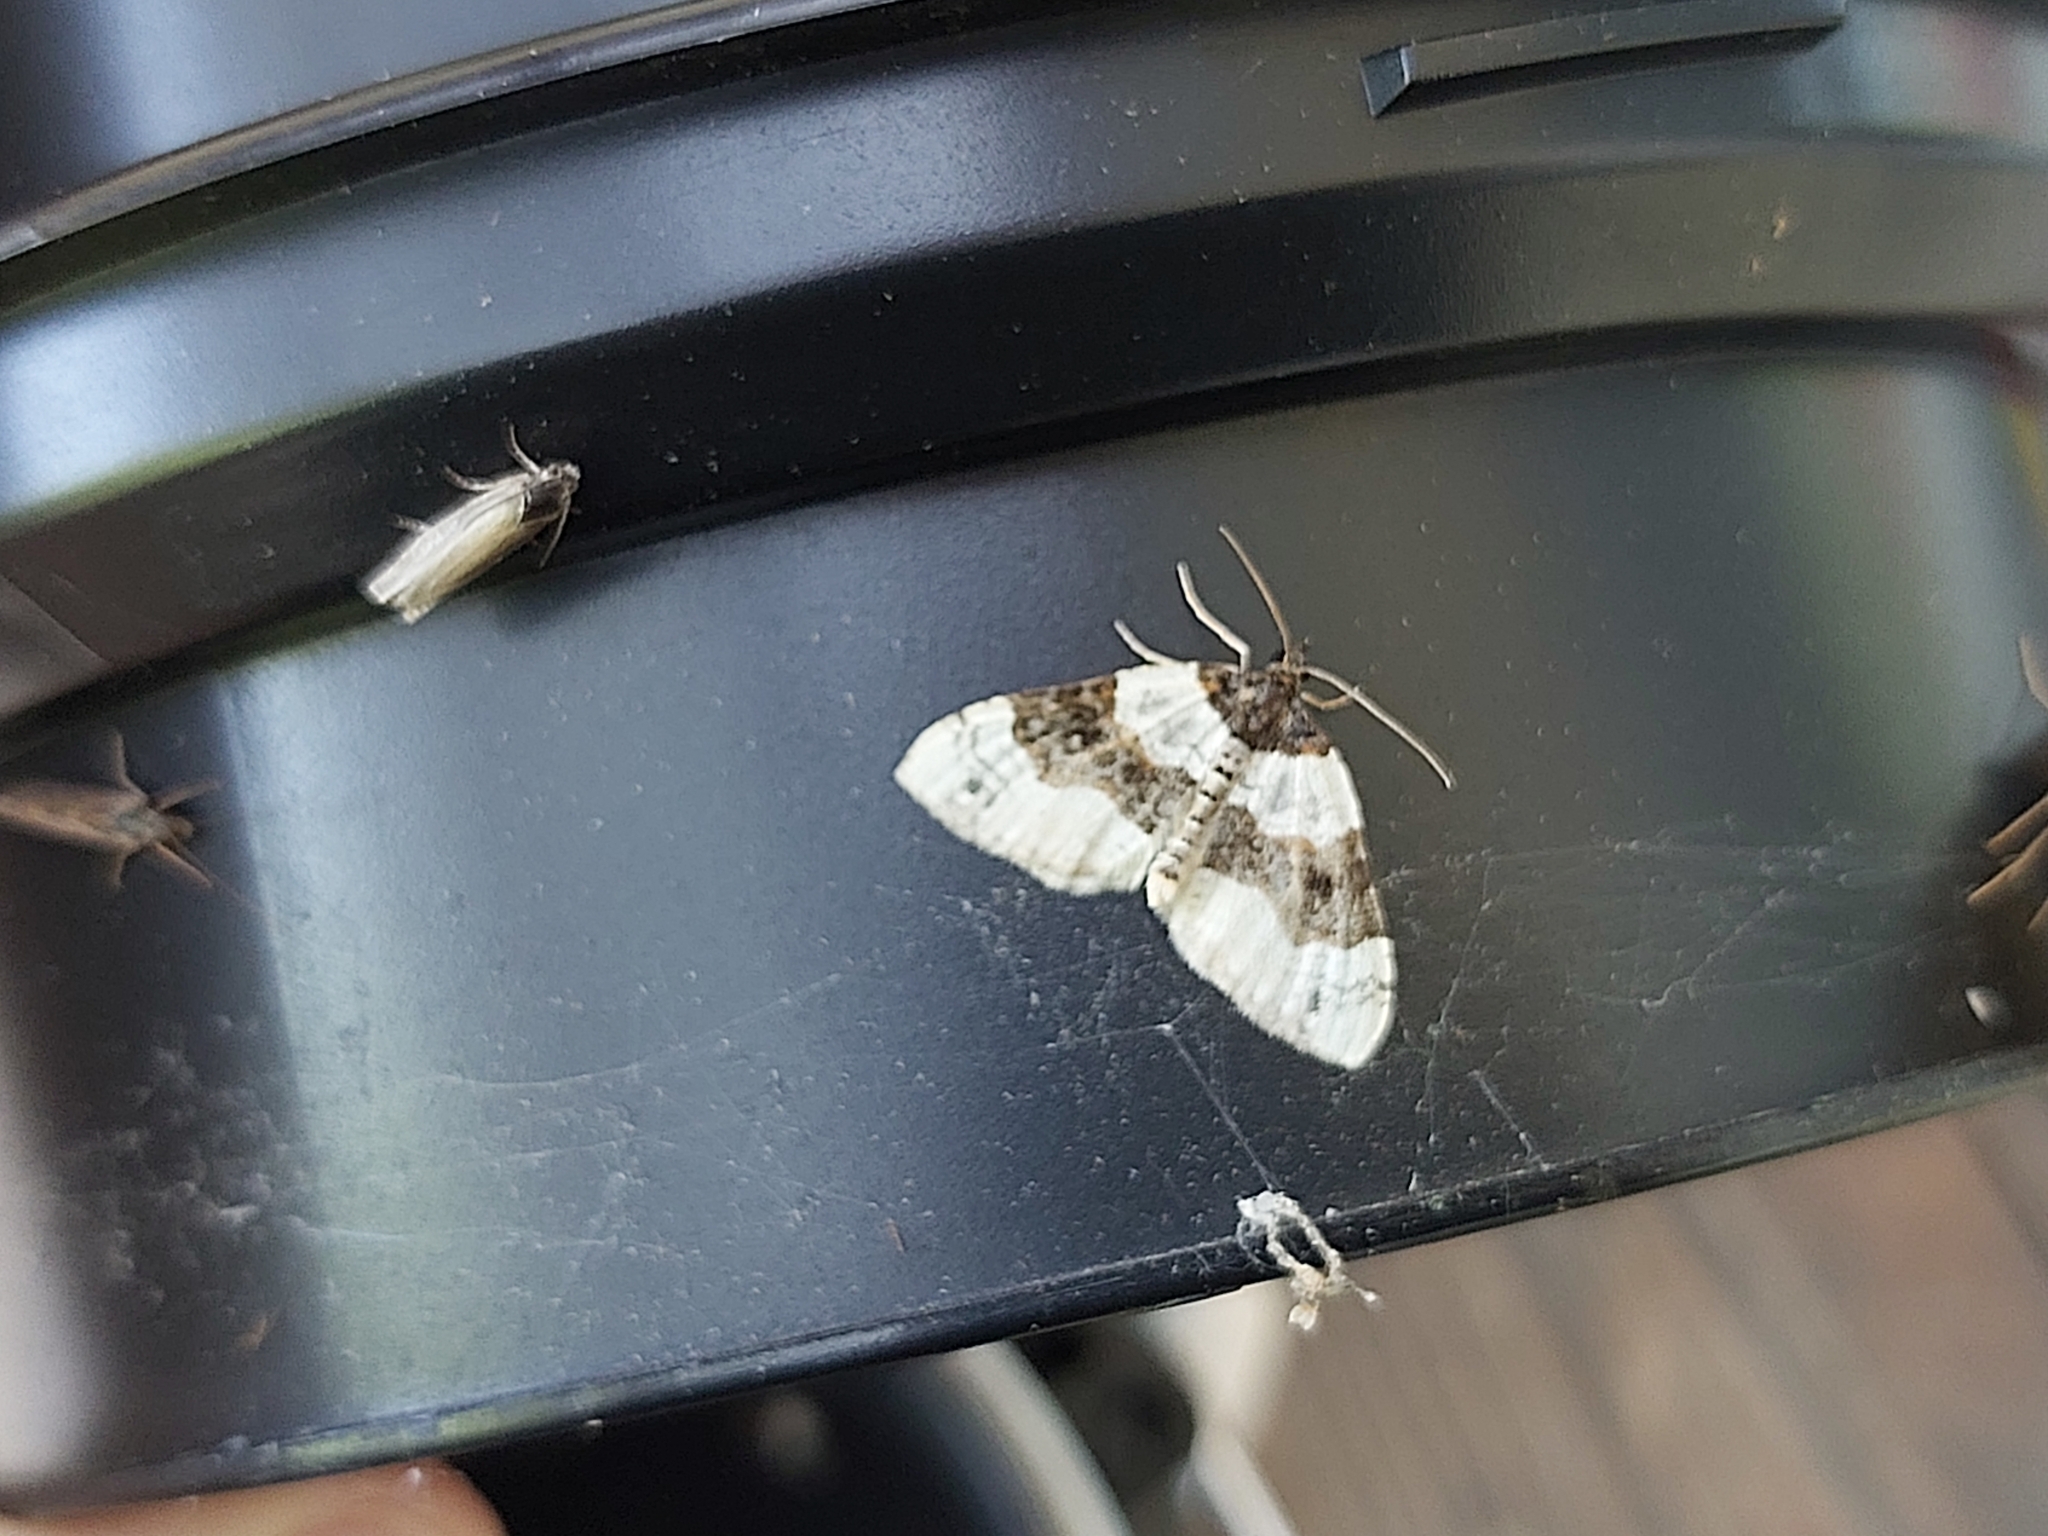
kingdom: Animalia
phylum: Arthropoda
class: Insecta
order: Lepidoptera
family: Geometridae
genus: Cosmorhoe
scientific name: Cosmorhoe ocellata
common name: Purple bar
